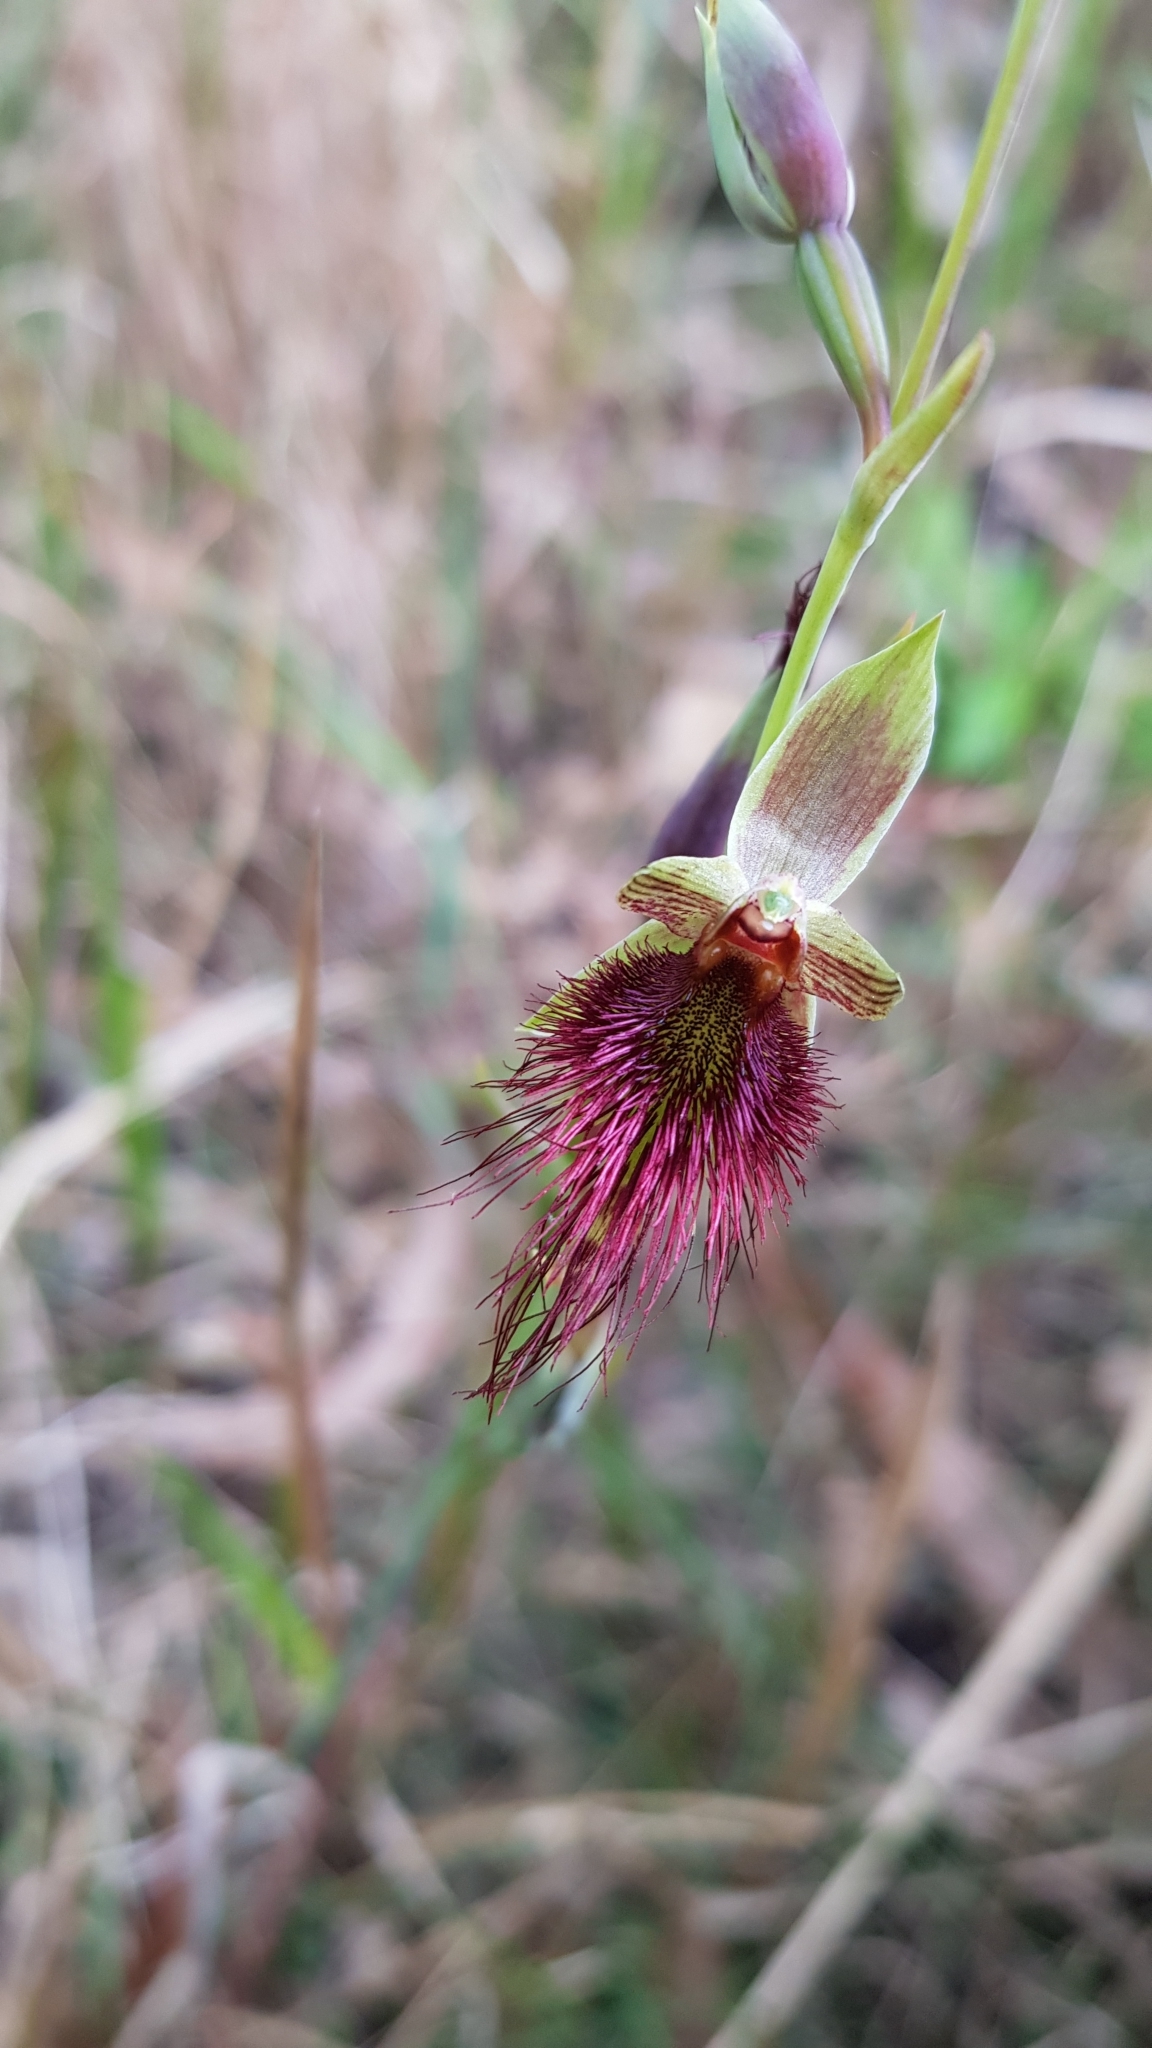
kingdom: Plantae
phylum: Tracheophyta
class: Liliopsida
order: Asparagales
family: Orchidaceae
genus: Calochilus
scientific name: Calochilus paludosus
